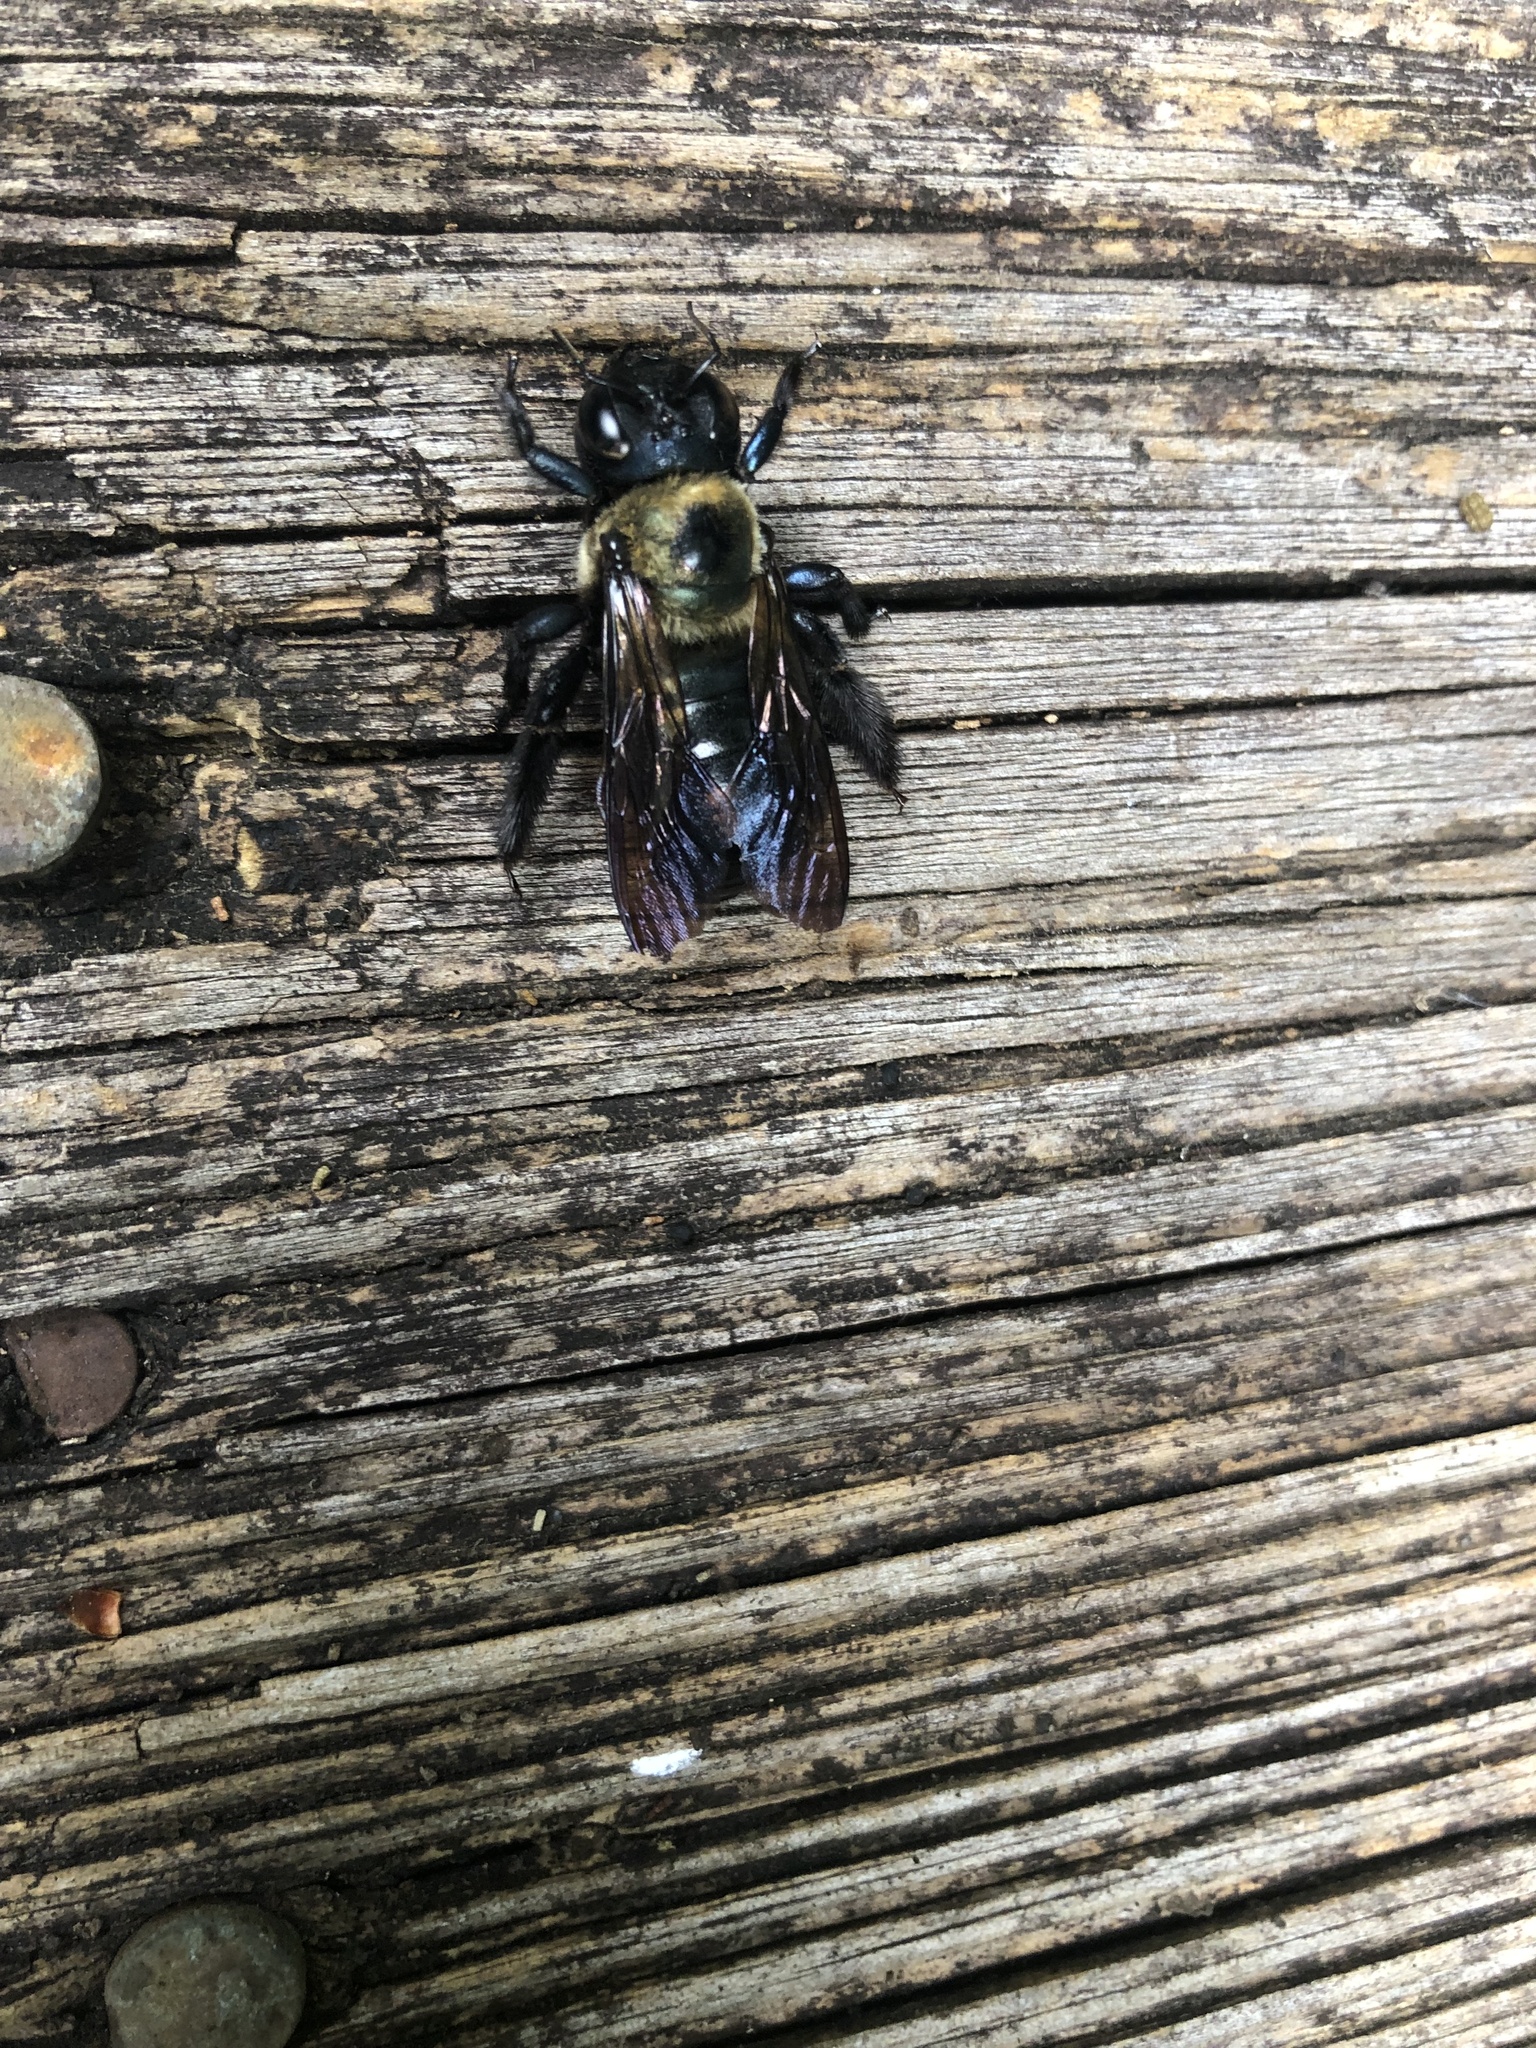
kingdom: Animalia
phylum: Arthropoda
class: Insecta
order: Hymenoptera
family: Apidae
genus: Xylocopa
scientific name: Xylocopa virginica
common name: Carpenter bee
